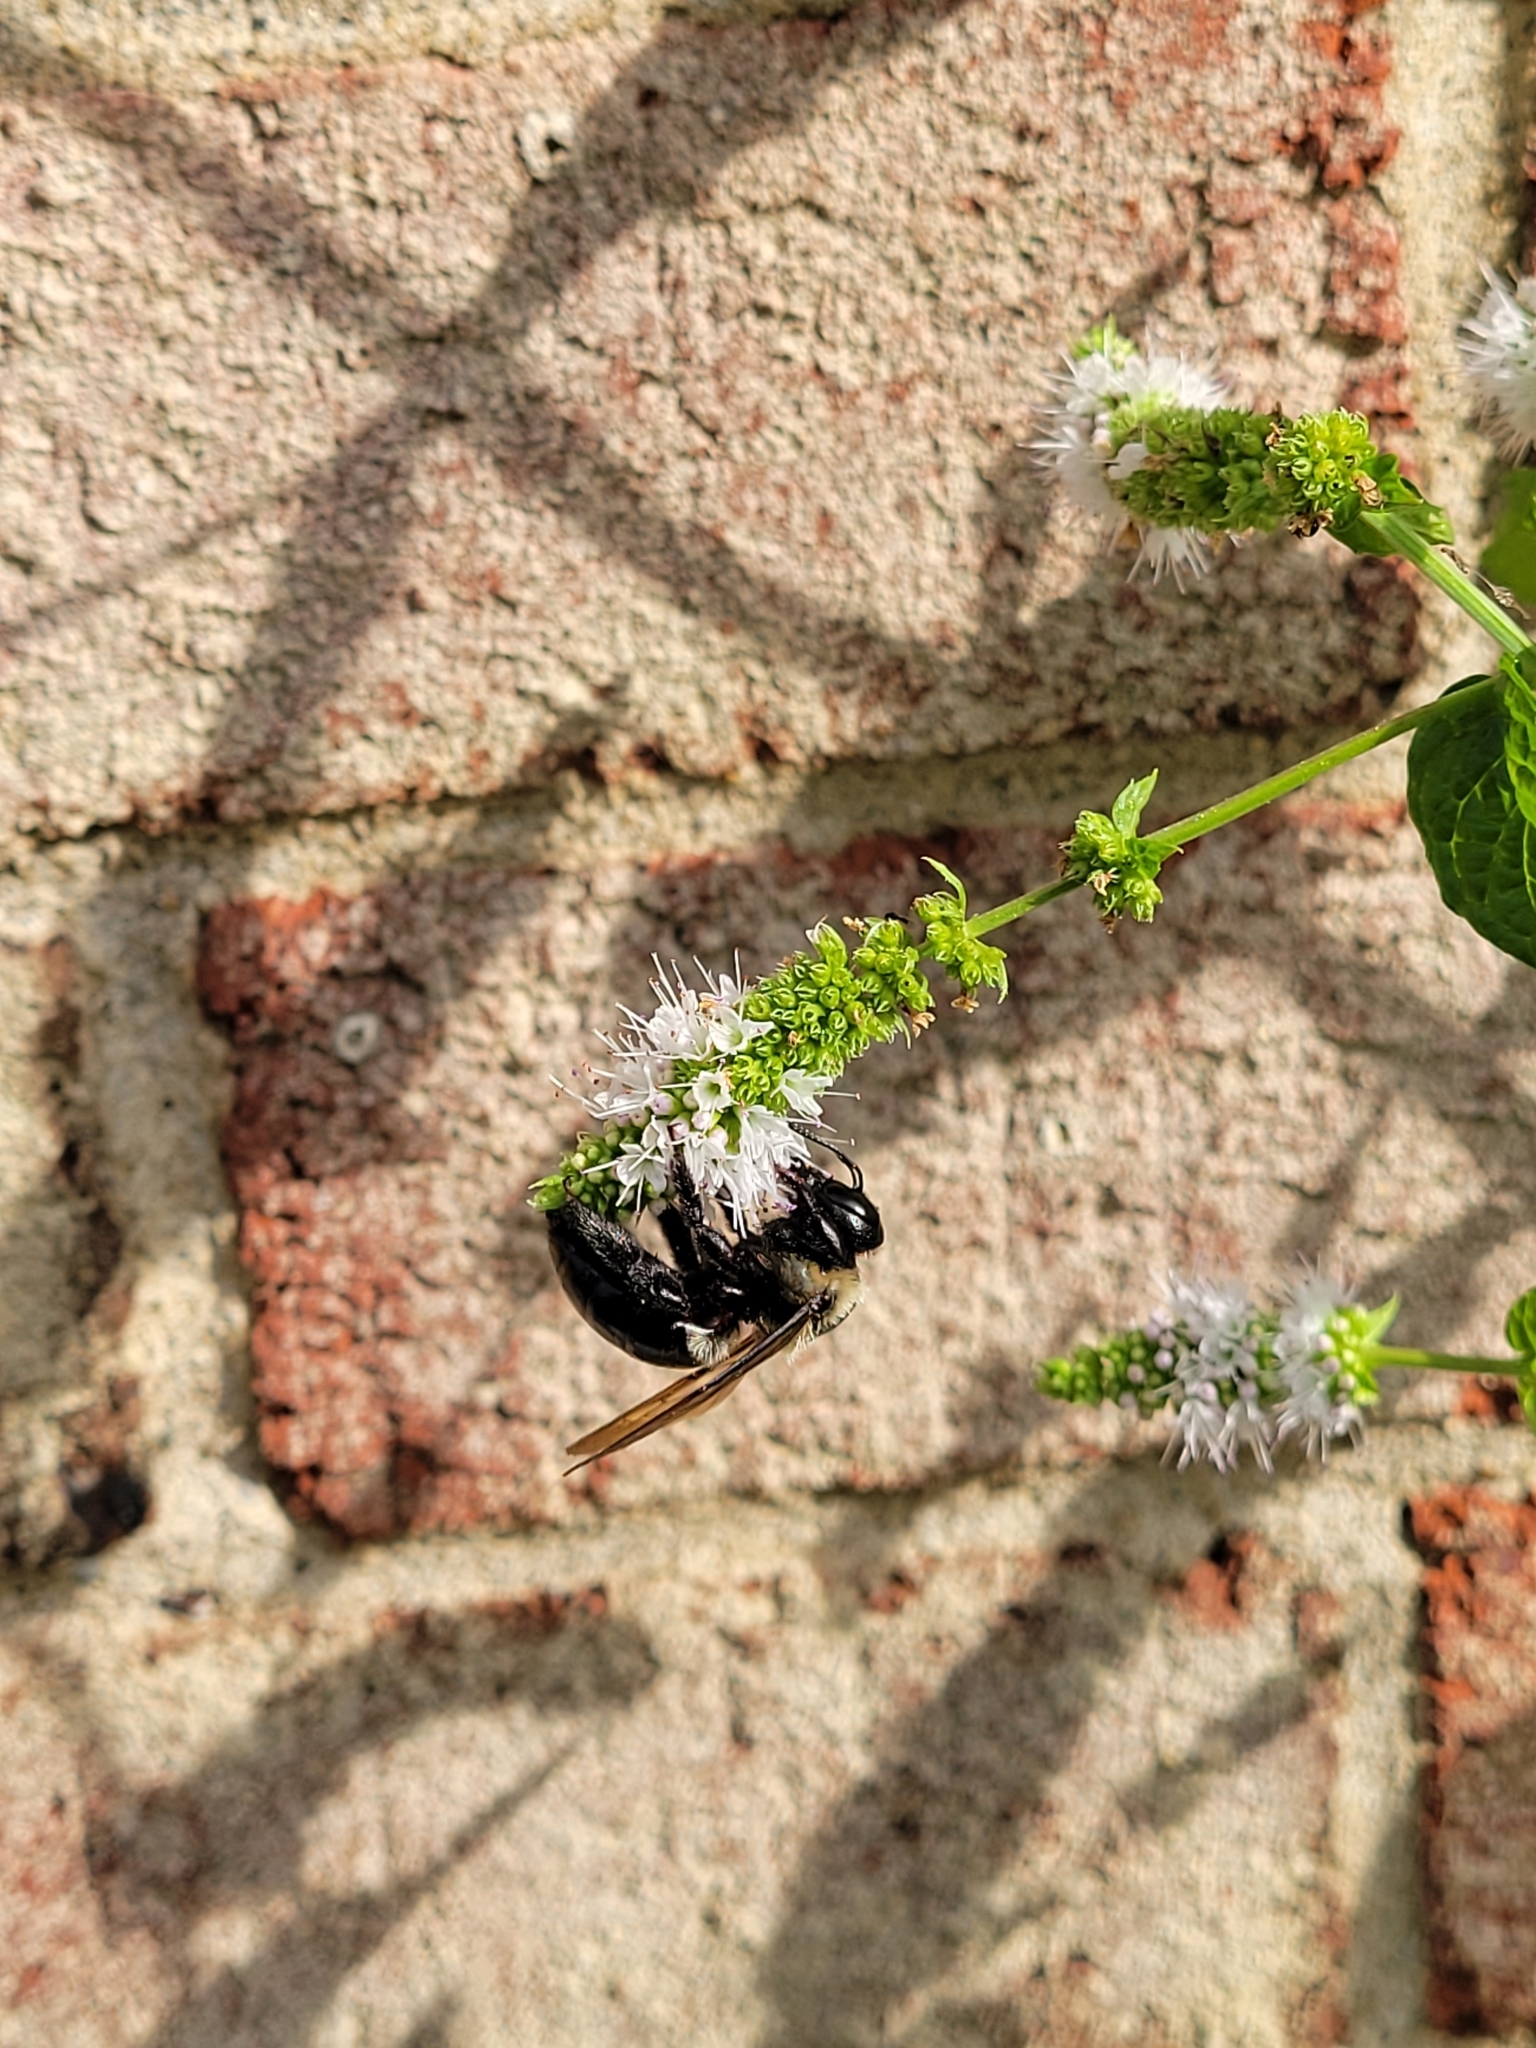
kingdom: Animalia
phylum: Arthropoda
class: Insecta
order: Hymenoptera
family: Apidae
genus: Xylocopa
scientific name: Xylocopa virginica
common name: Carpenter bee
